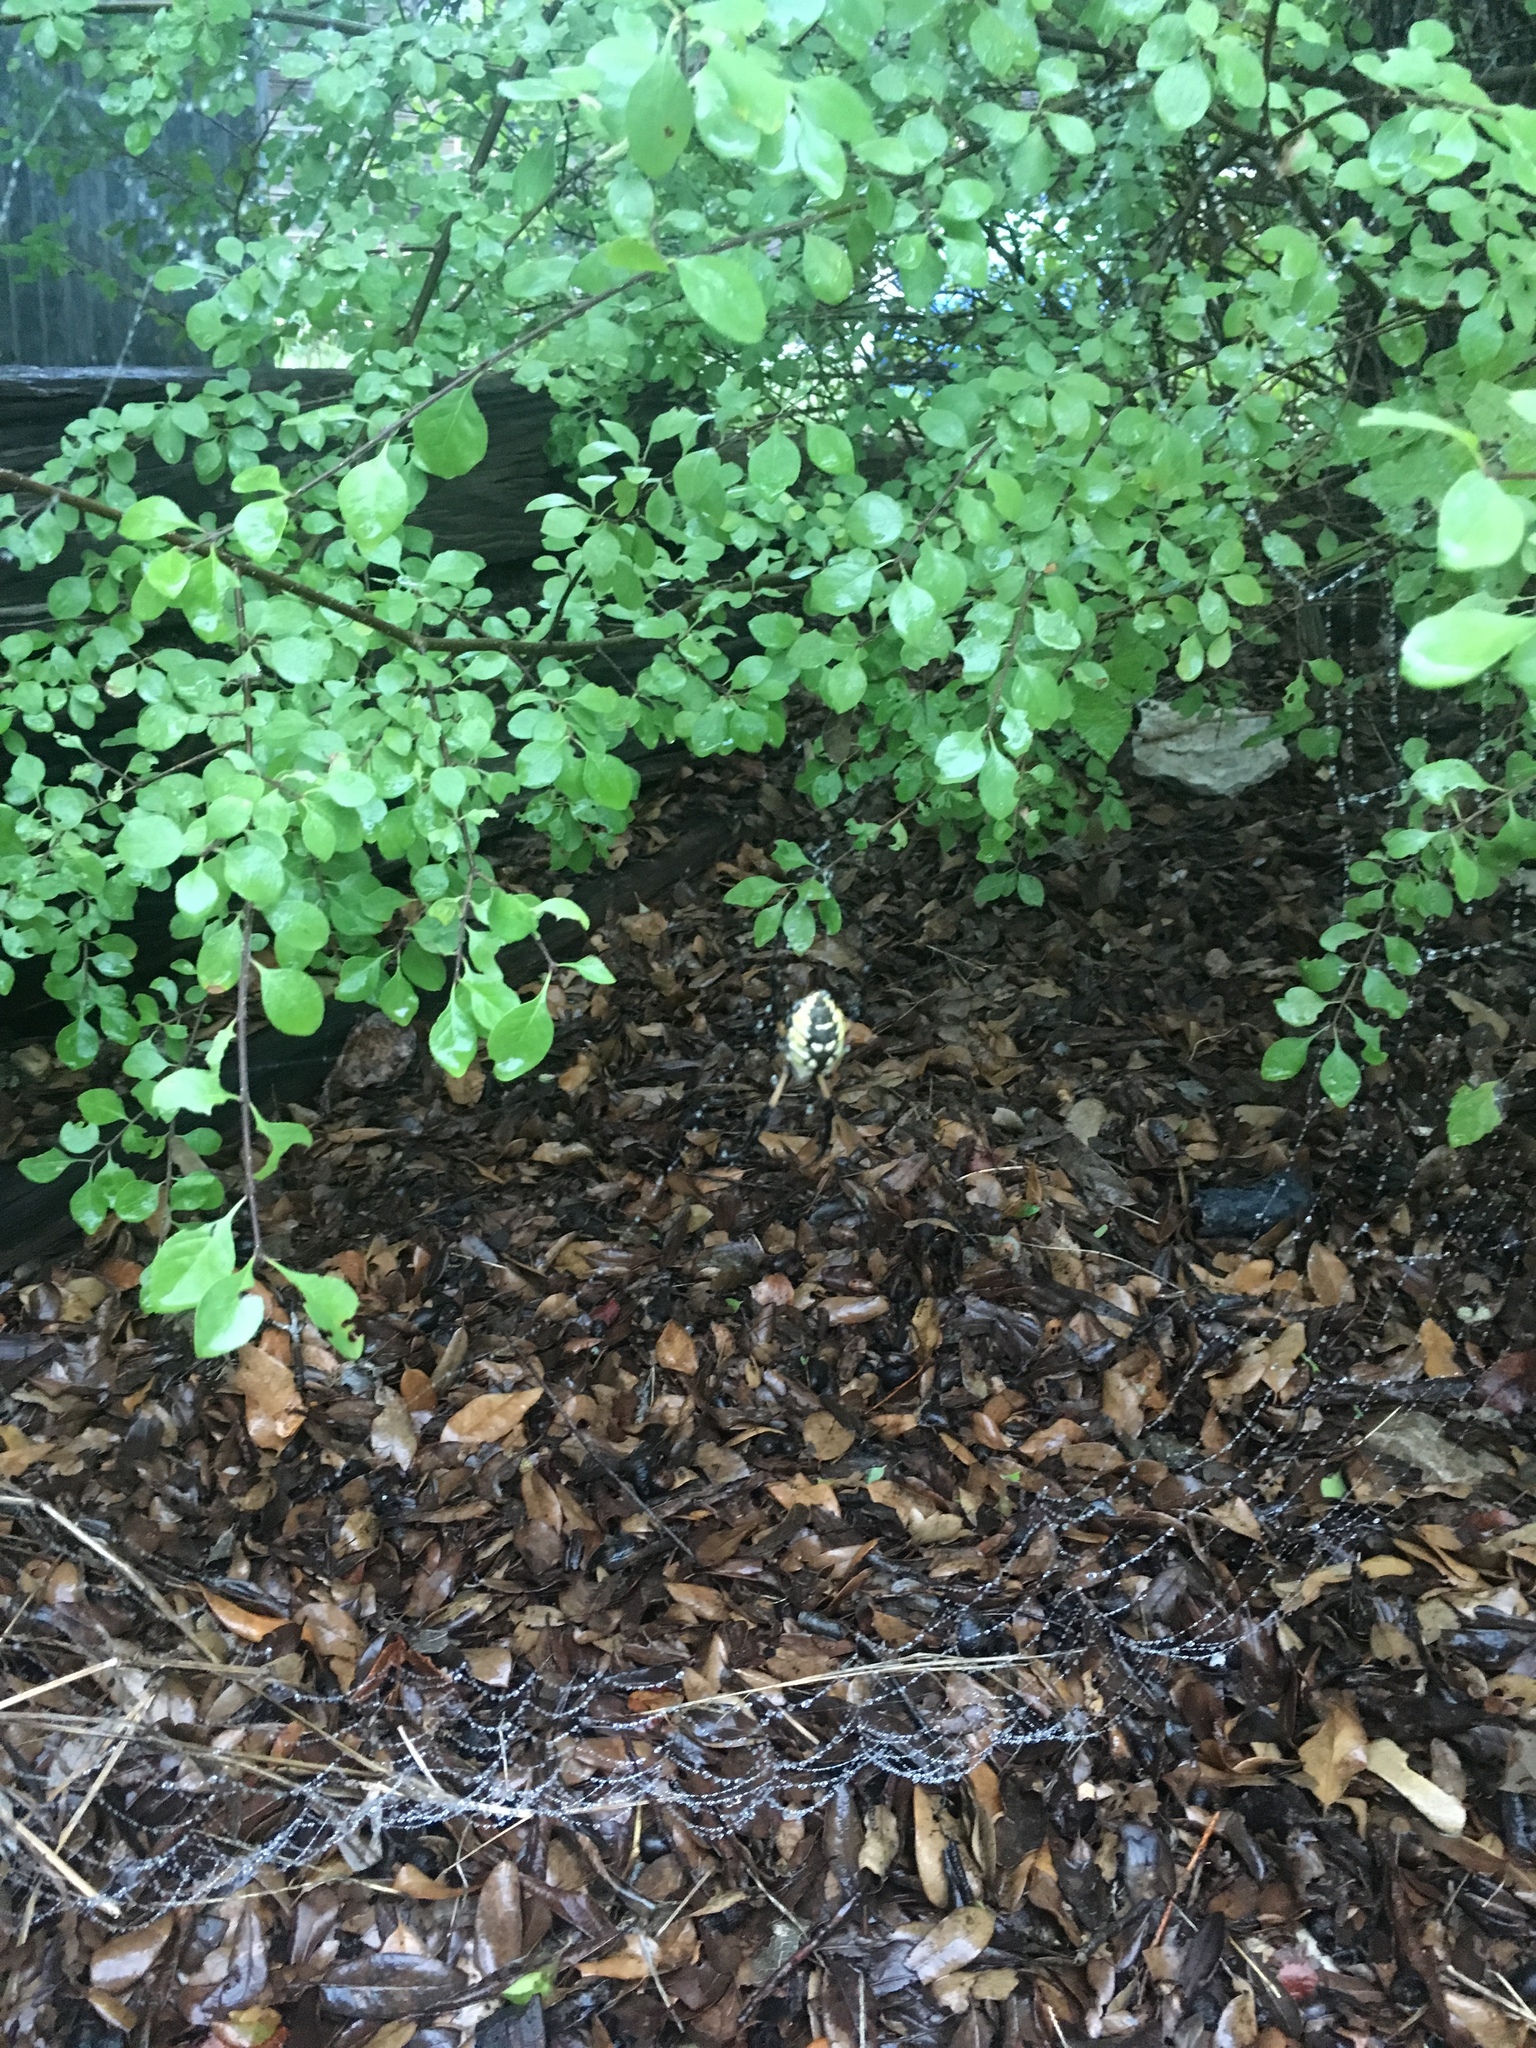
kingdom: Animalia
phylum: Arthropoda
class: Arachnida
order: Araneae
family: Araneidae
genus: Argiope
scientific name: Argiope aurantia
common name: Orb weavers
